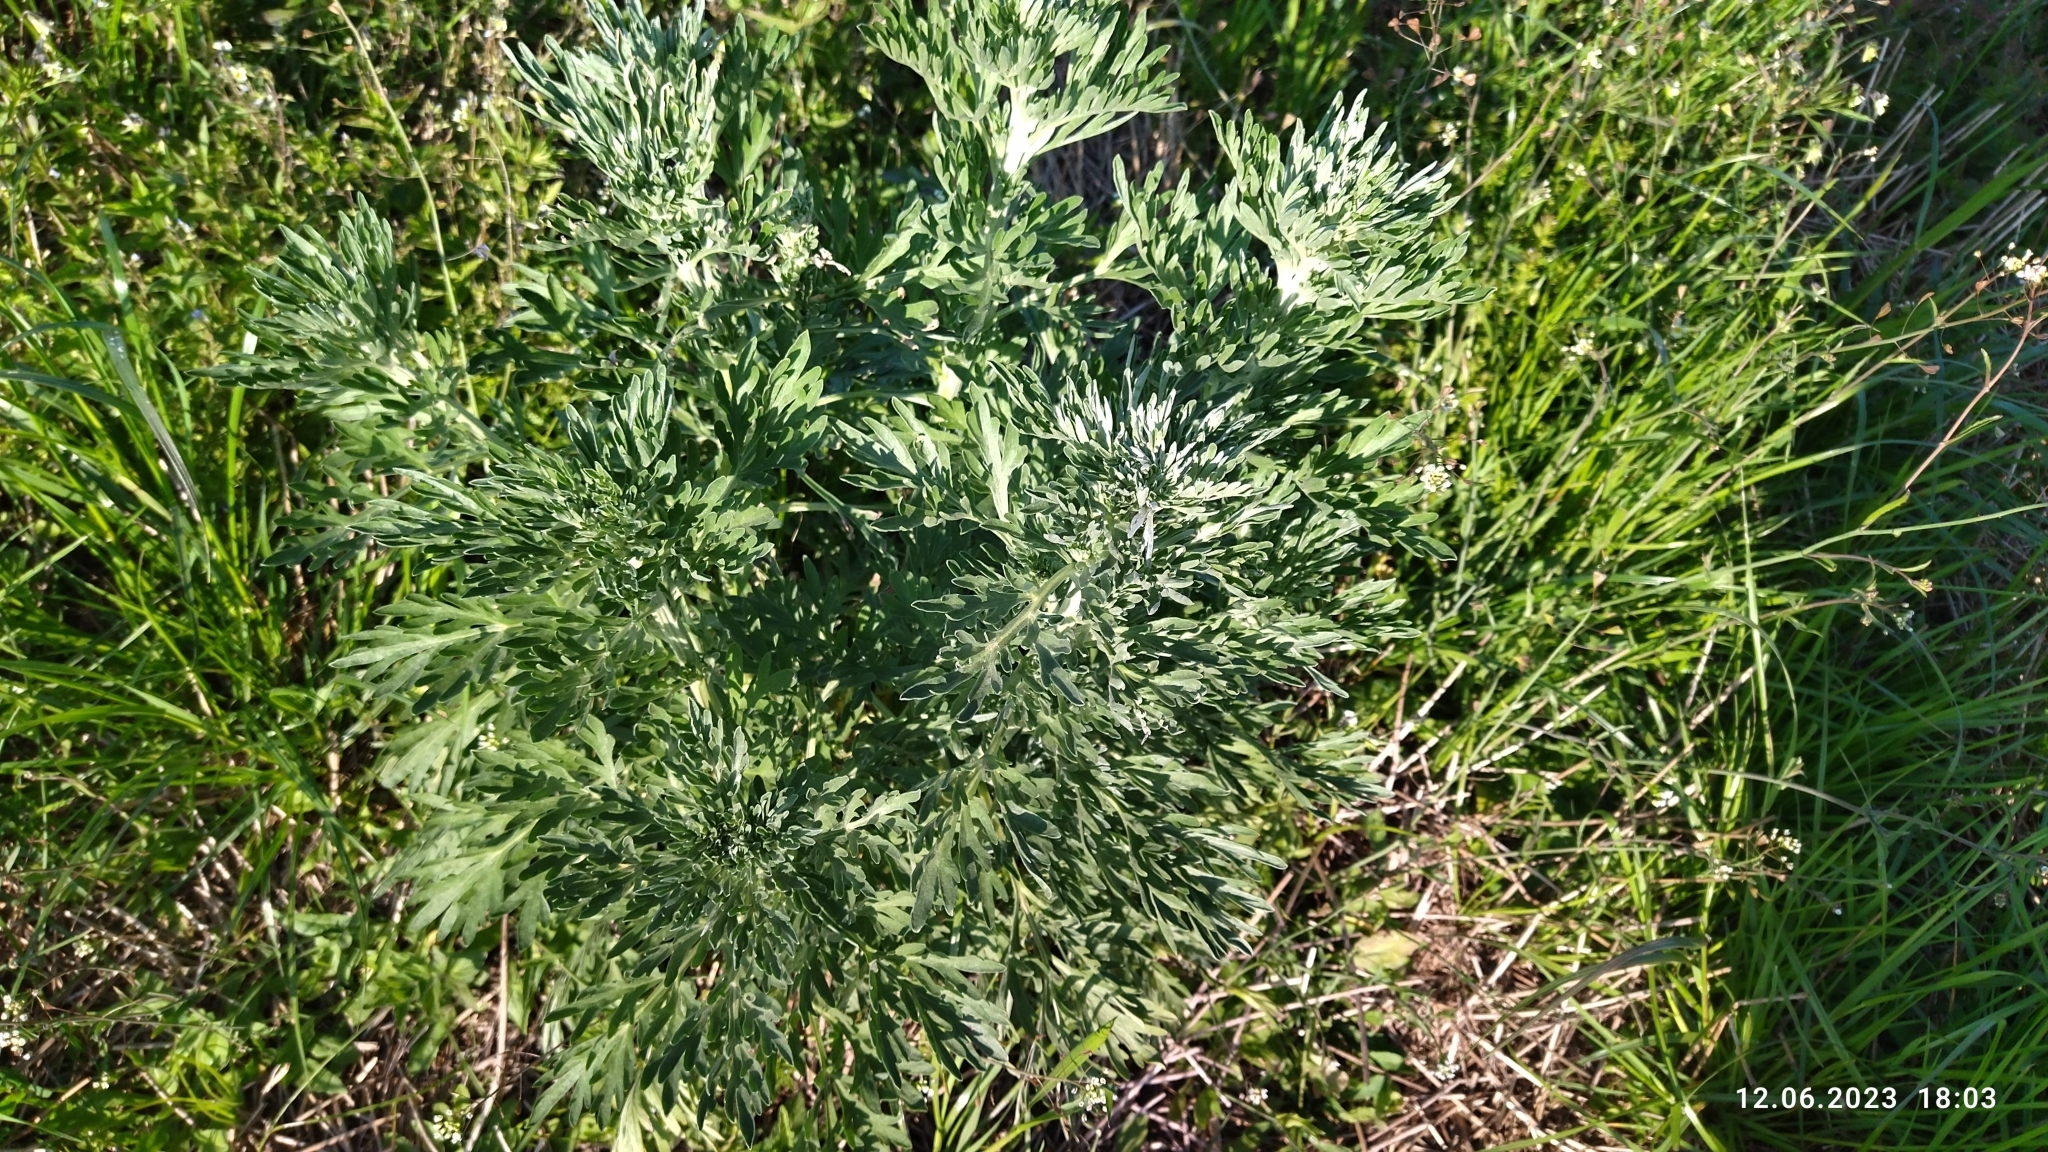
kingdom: Plantae
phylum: Tracheophyta
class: Magnoliopsida
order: Asterales
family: Asteraceae
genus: Artemisia
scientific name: Artemisia absinthium
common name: Wormwood
